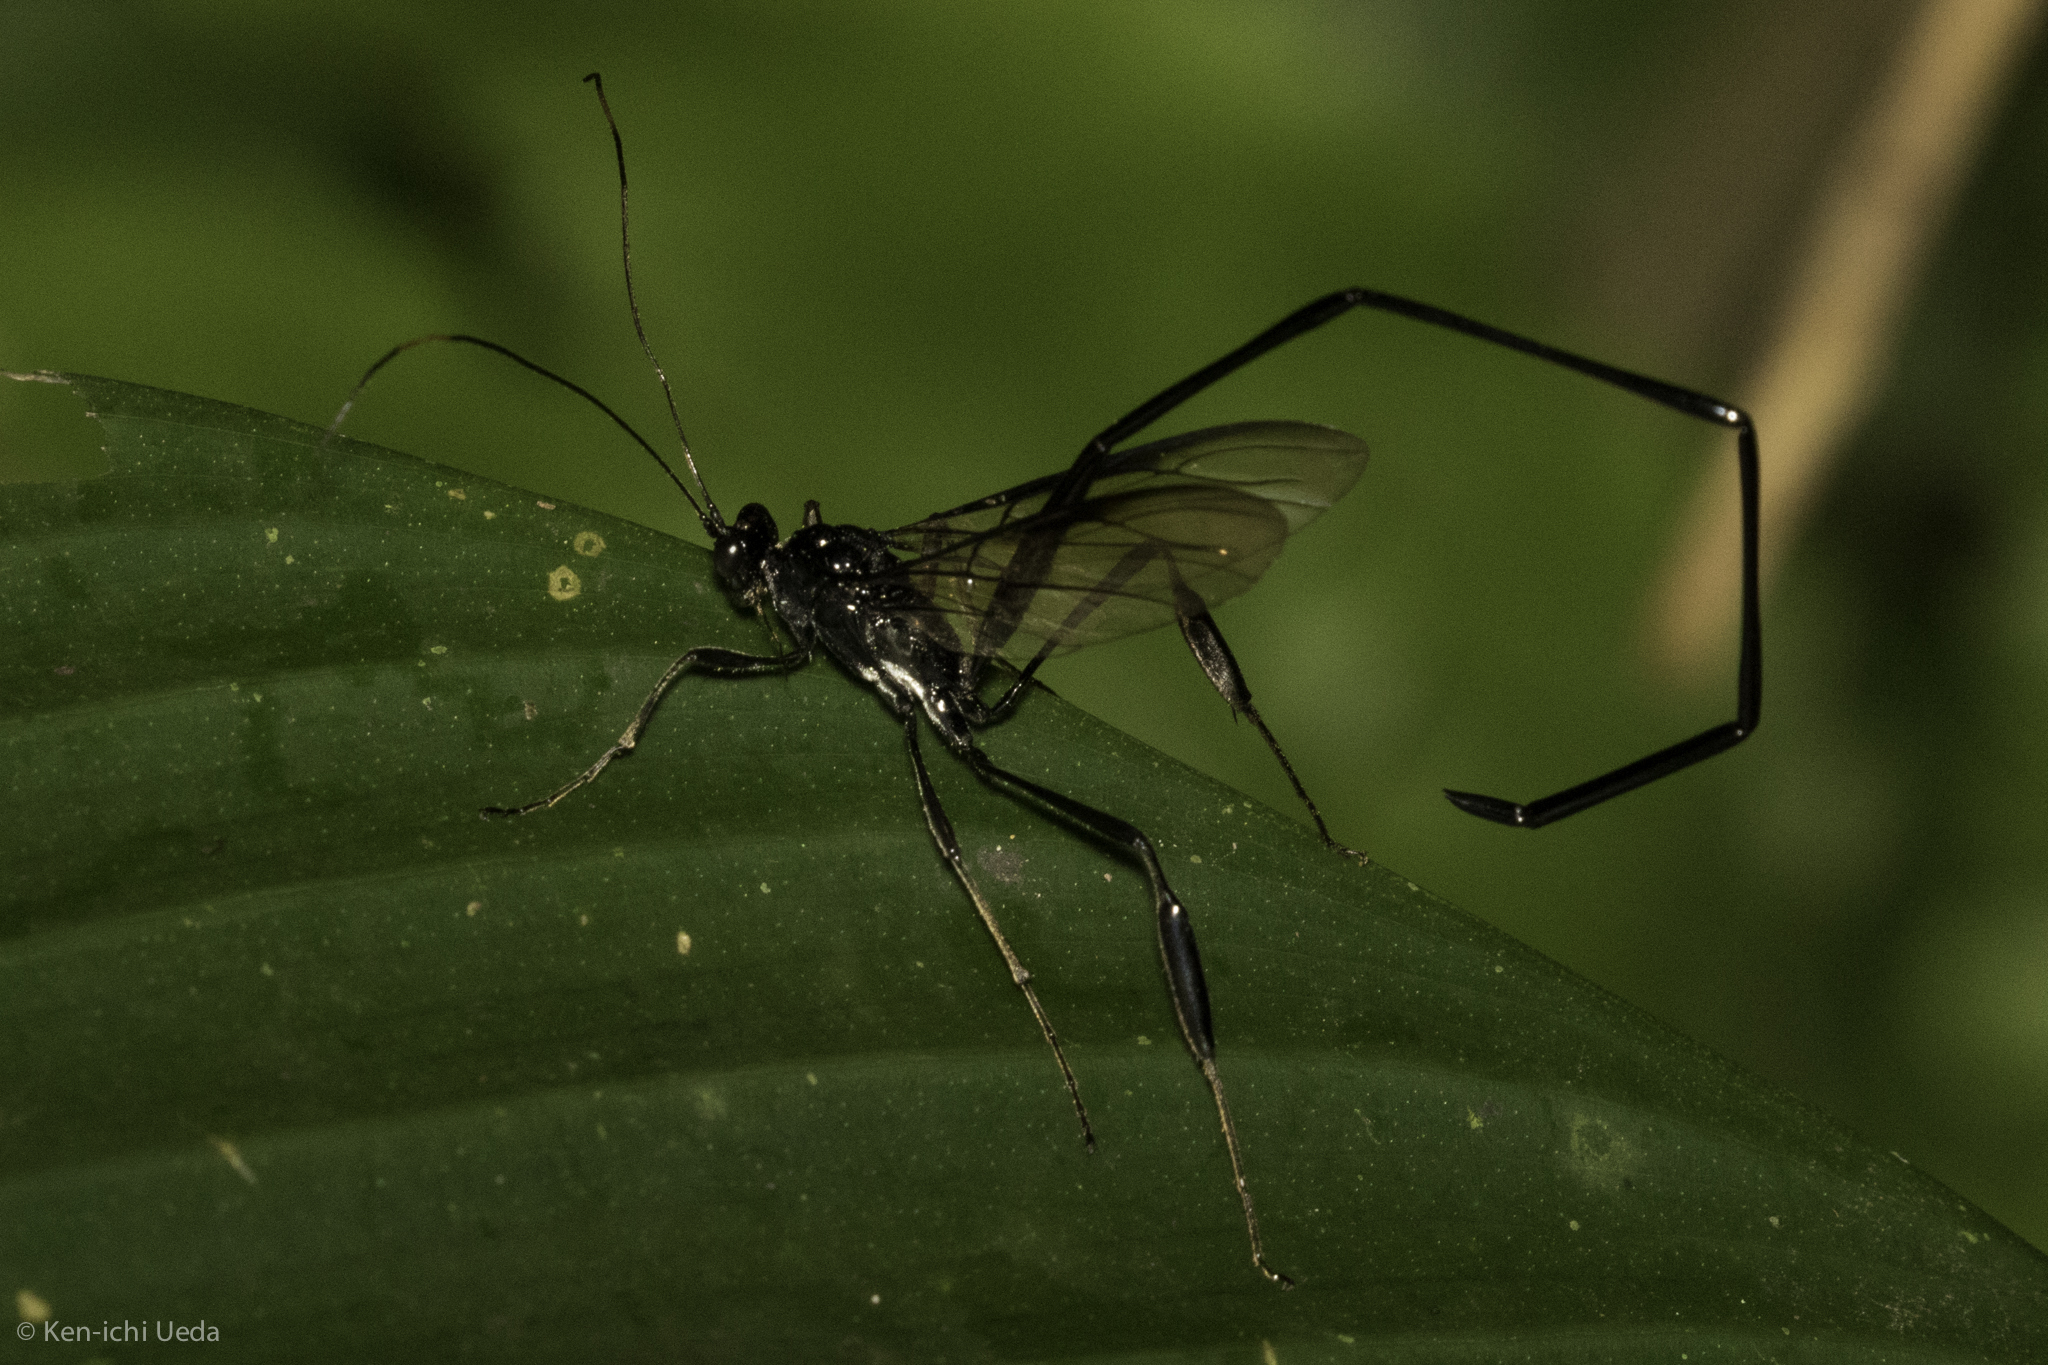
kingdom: Animalia
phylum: Arthropoda
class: Insecta
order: Hymenoptera
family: Pelecinidae
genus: Pelecinus
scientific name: Pelecinus polyturator
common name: American pelecinid wasp
